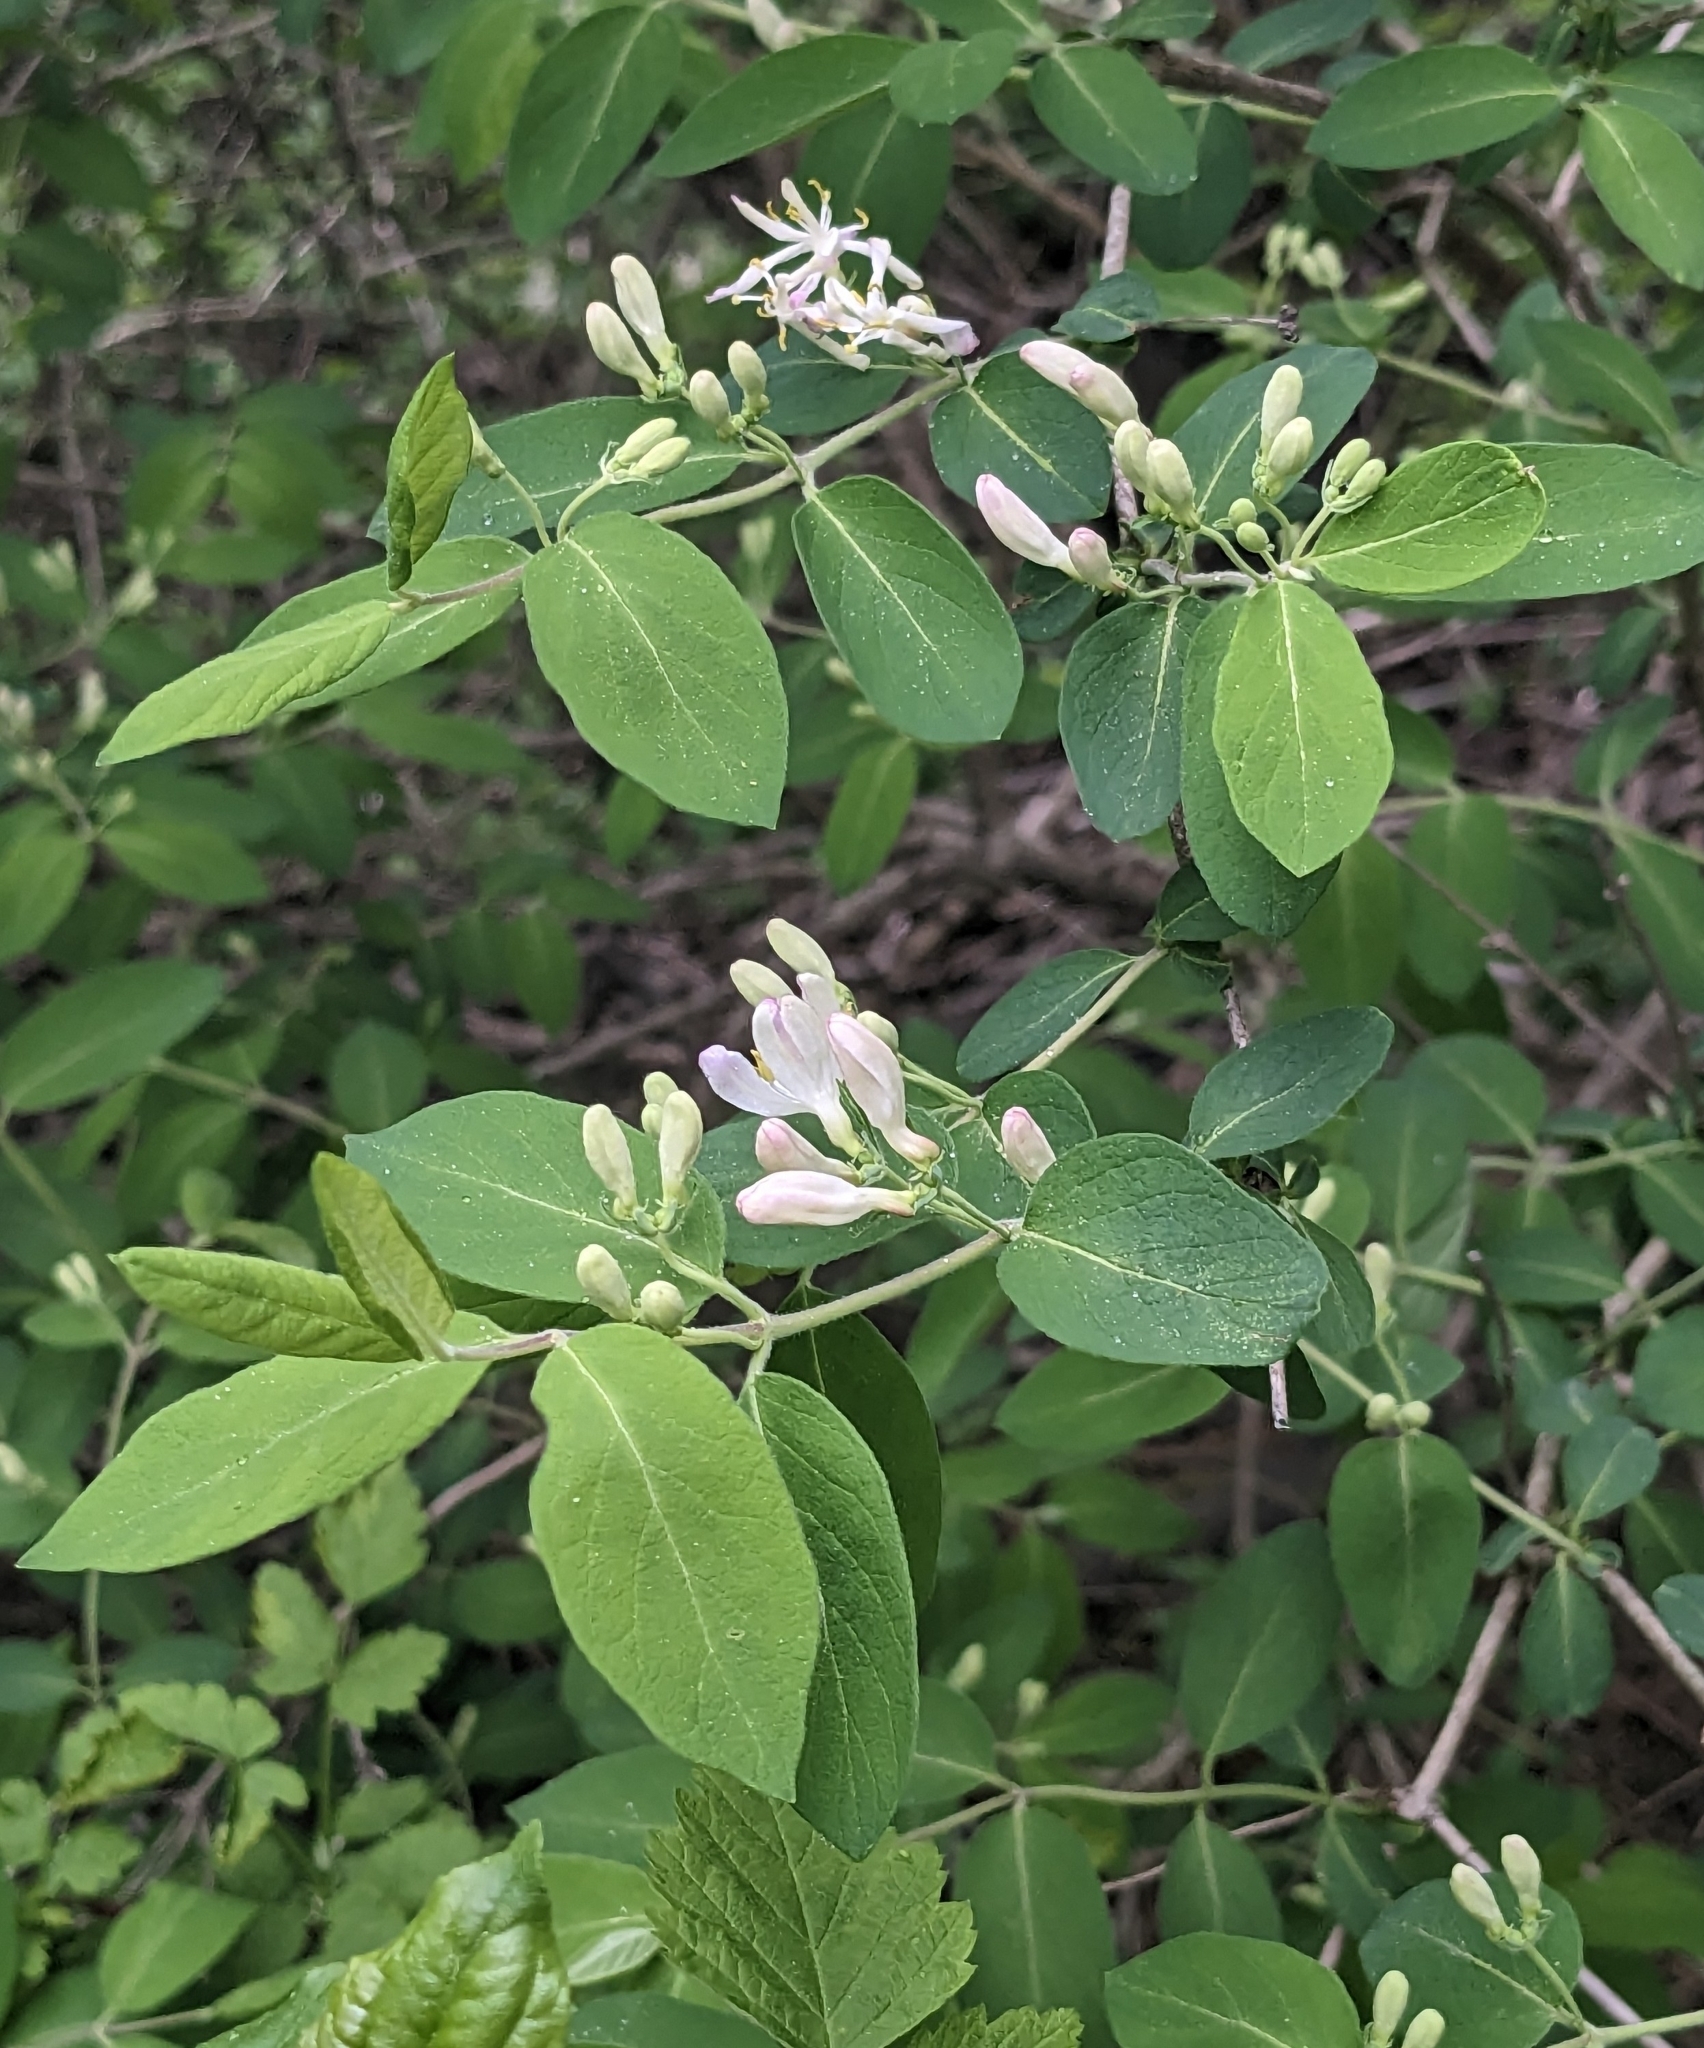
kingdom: Plantae
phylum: Tracheophyta
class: Magnoliopsida
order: Dipsacales
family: Caprifoliaceae
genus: Lonicera
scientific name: Lonicera
